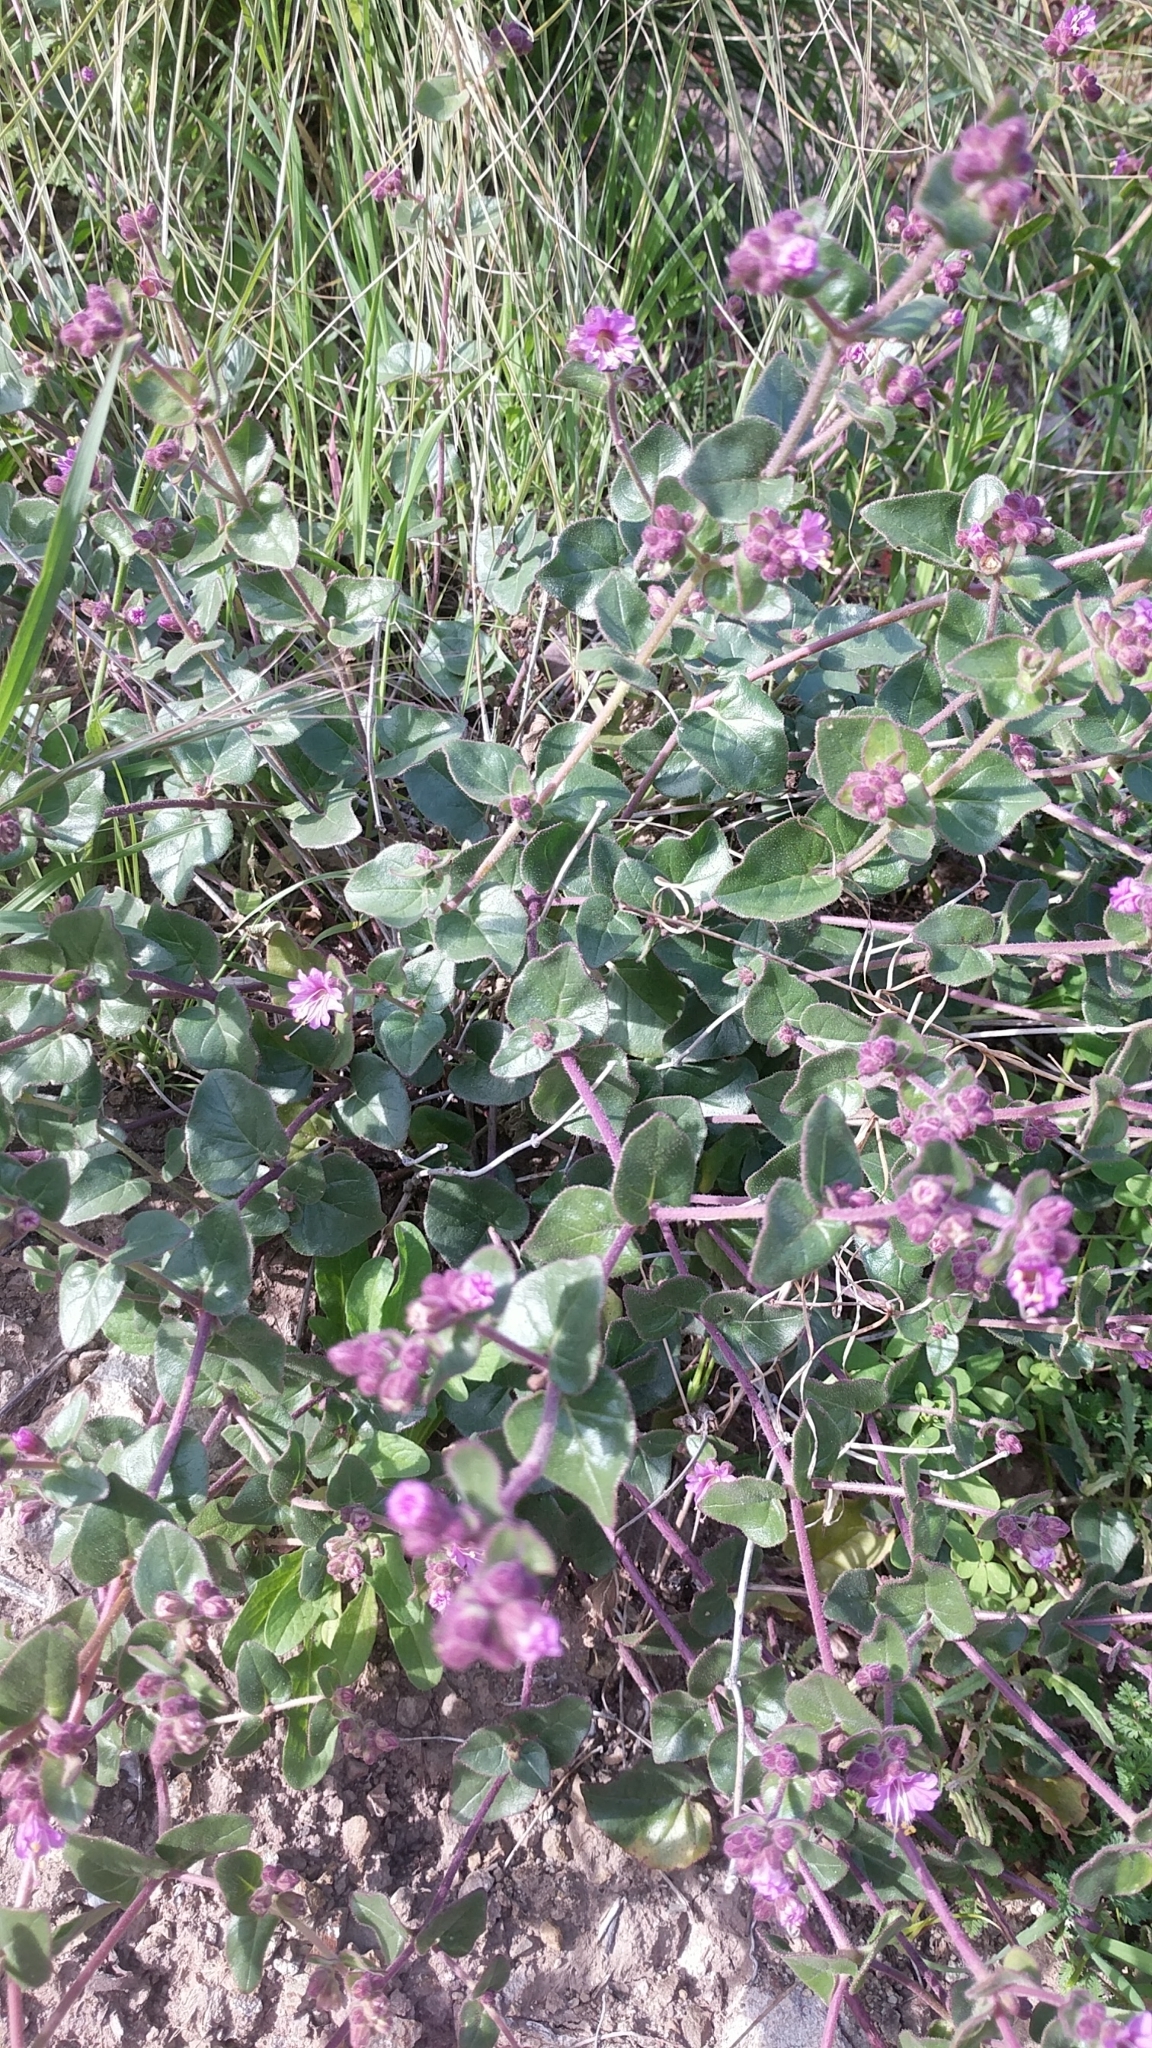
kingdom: Plantae
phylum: Tracheophyta
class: Magnoliopsida
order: Caryophyllales
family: Nyctaginaceae
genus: Mirabilis
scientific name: Mirabilis laevis
